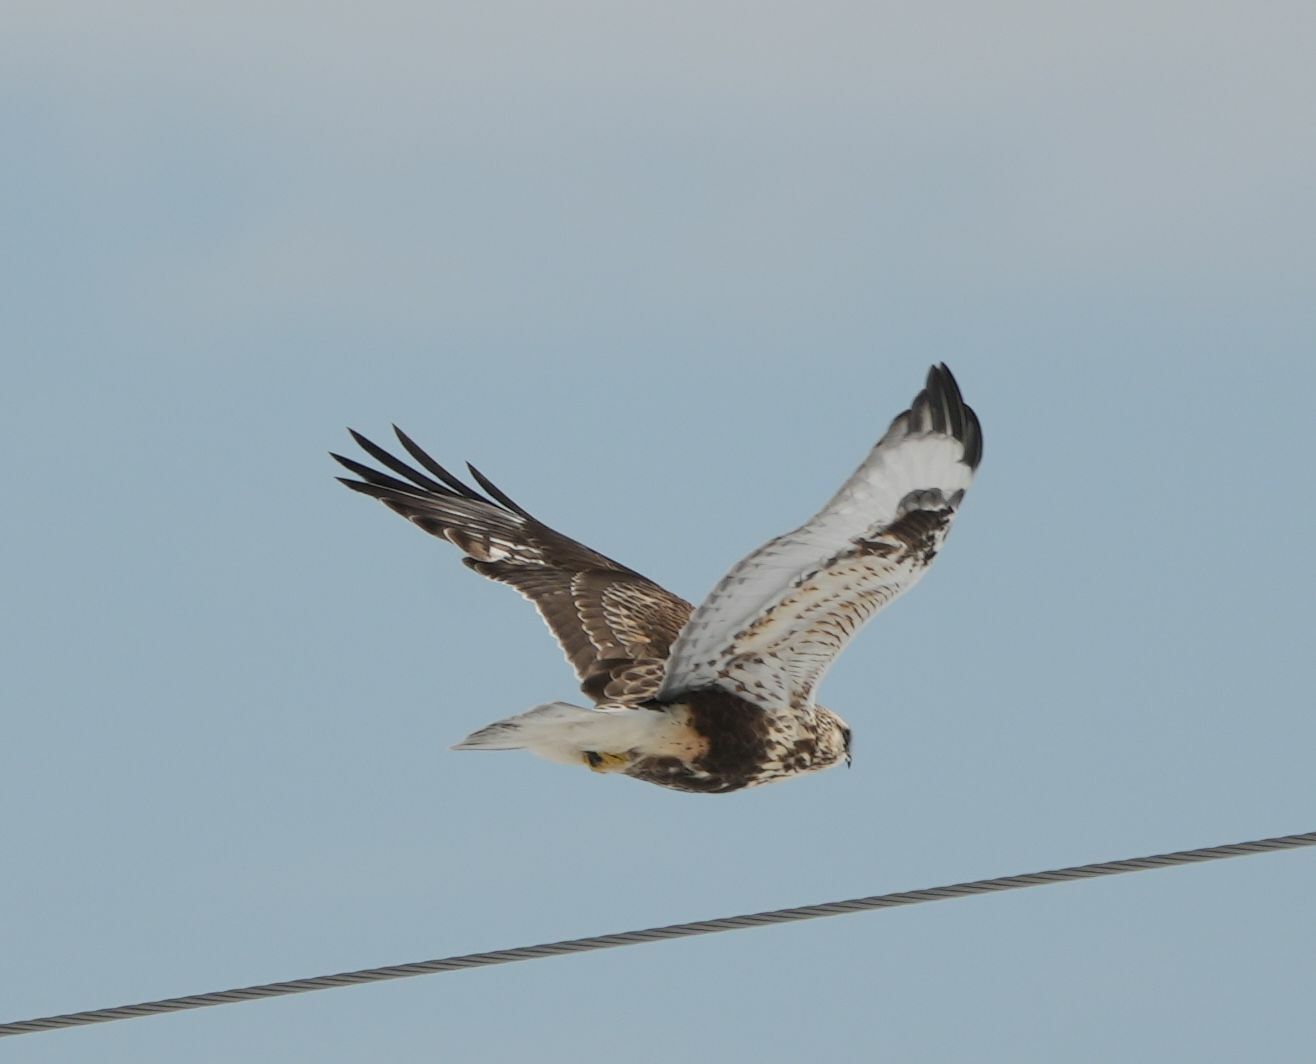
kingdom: Animalia
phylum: Chordata
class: Aves
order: Accipitriformes
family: Accipitridae
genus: Buteo
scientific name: Buteo lagopus
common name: Rough-legged buzzard
